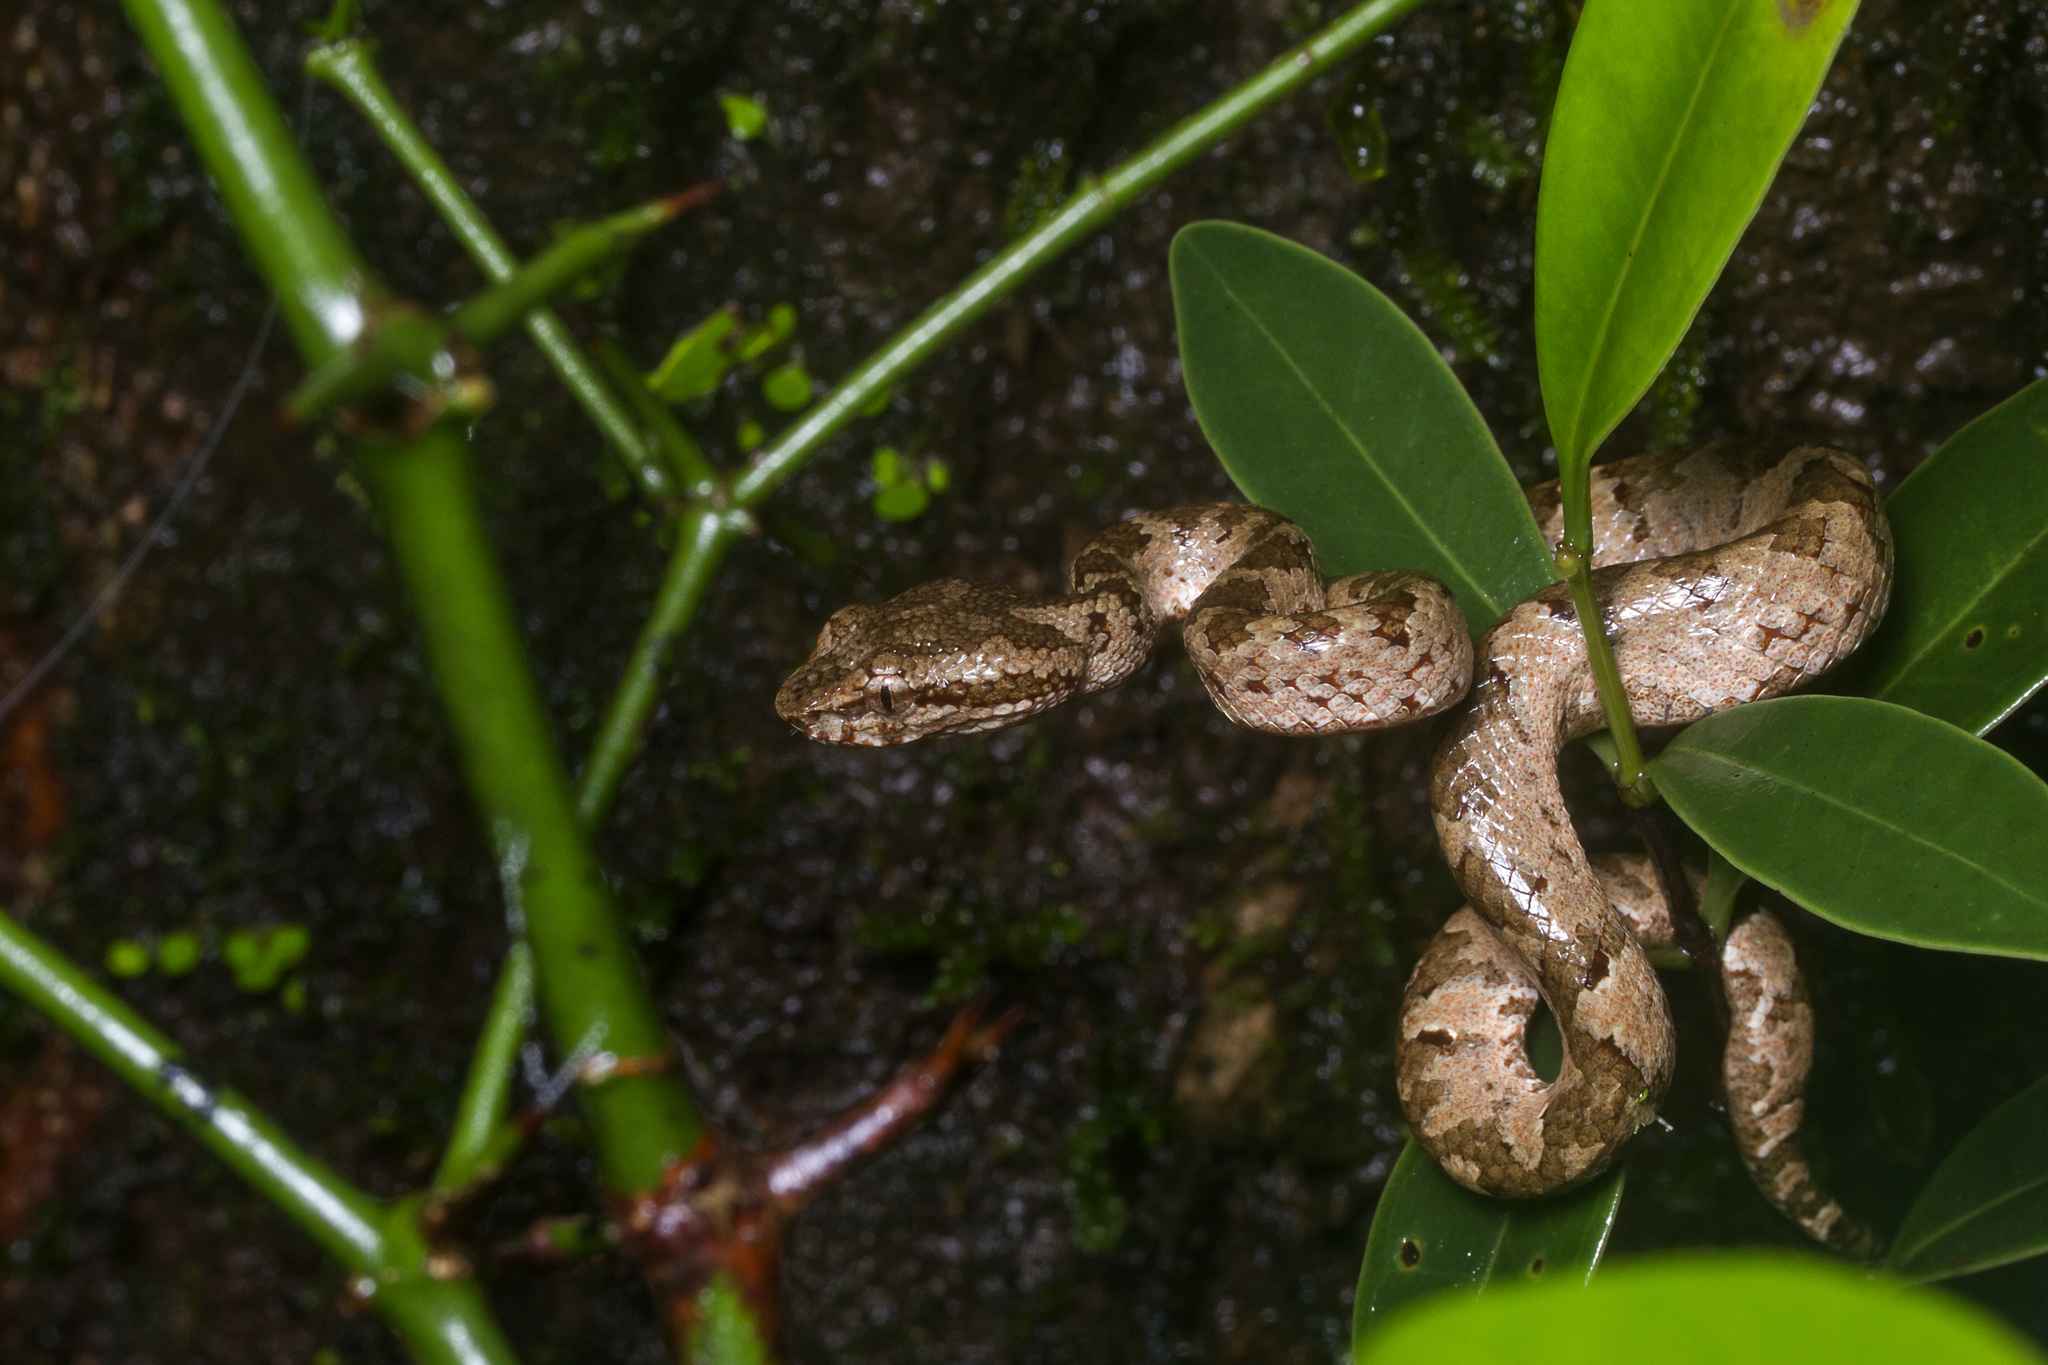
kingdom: Animalia
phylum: Chordata
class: Squamata
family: Viperidae
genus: Craspedocephalus
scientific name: Craspedocephalus malabaricus
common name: Malabarian pit viper
